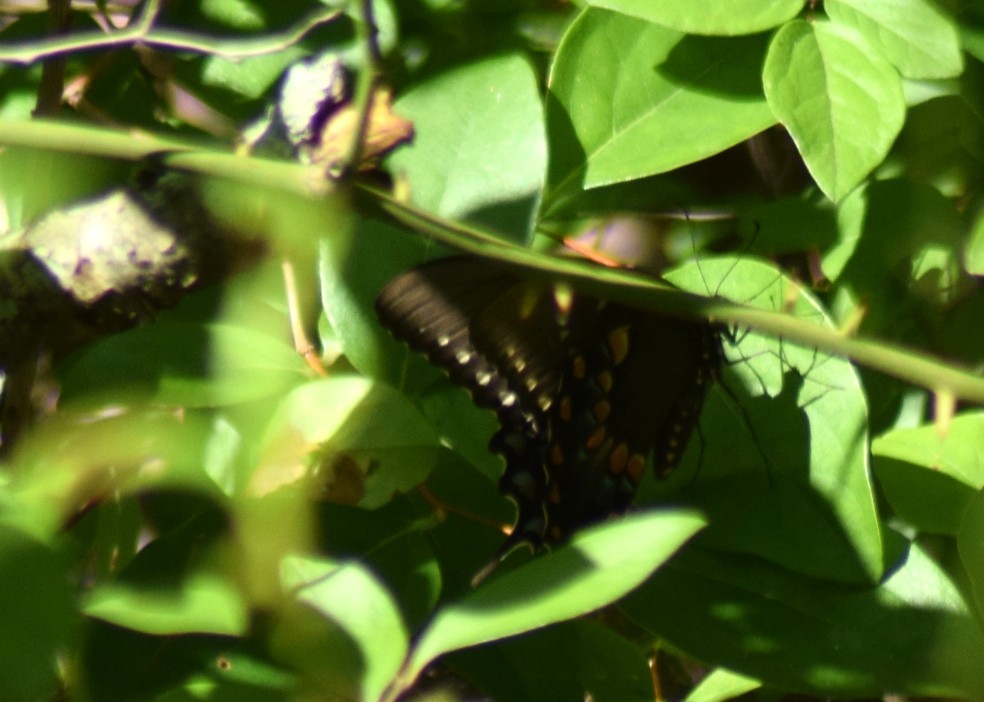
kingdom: Animalia
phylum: Arthropoda
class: Insecta
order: Lepidoptera
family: Papilionidae
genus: Papilio
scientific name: Papilio troilus
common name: Spicebush swallowtail
